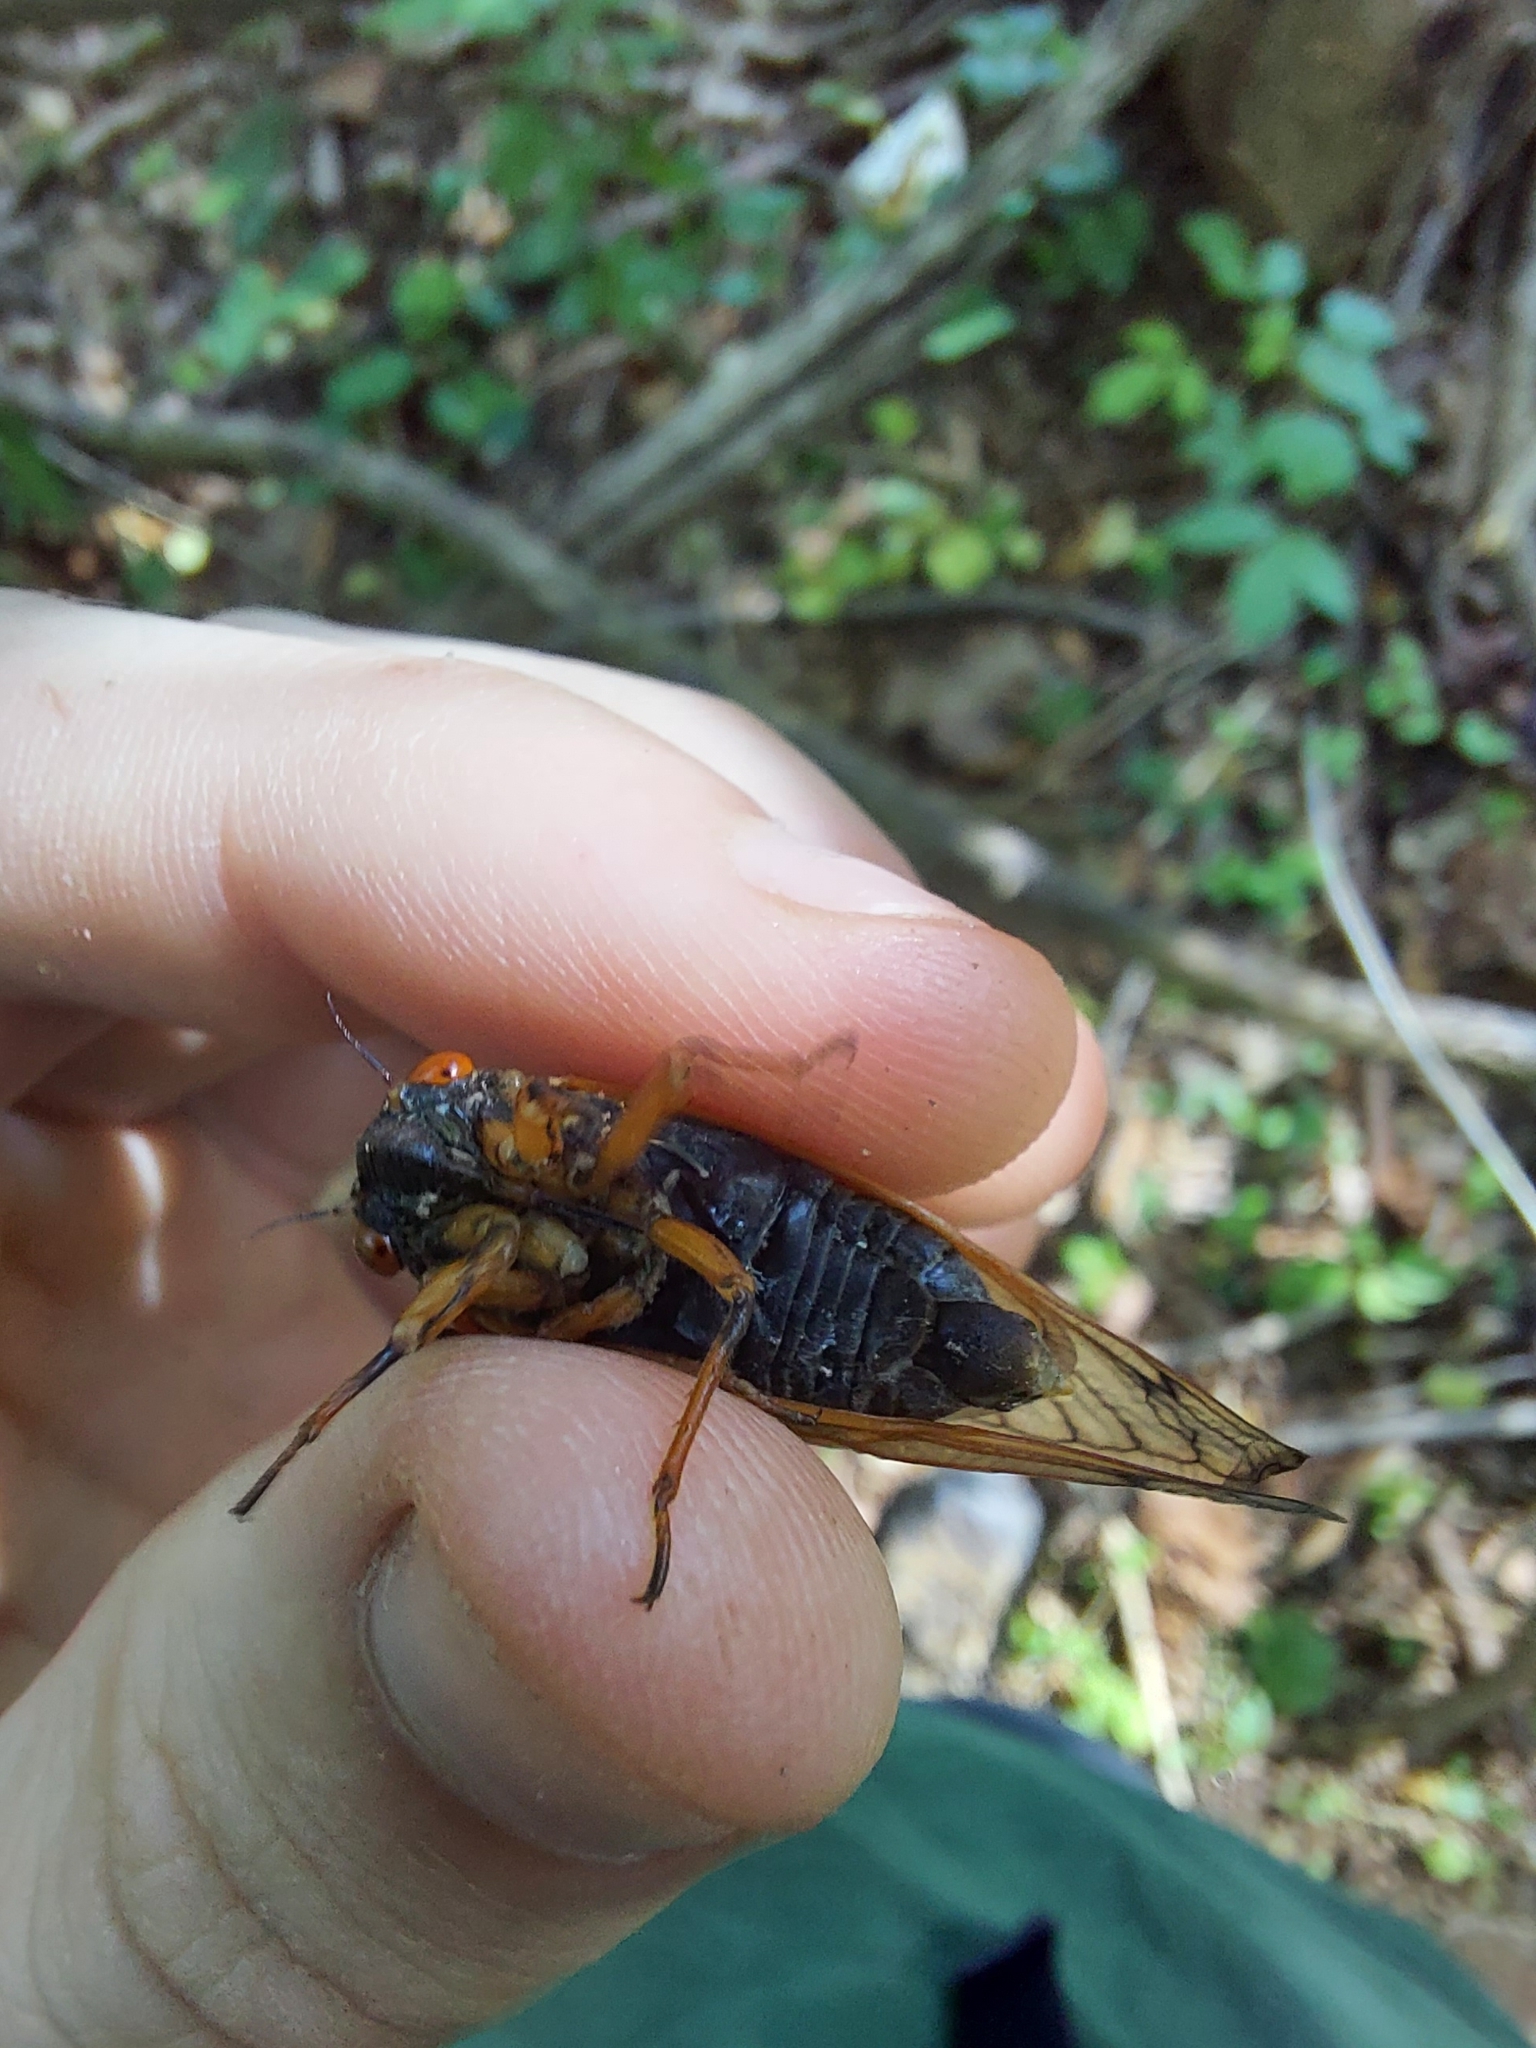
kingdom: Animalia
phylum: Arthropoda
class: Insecta
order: Hemiptera
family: Cicadidae
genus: Magicicada
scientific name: Magicicada cassini
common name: Cassin's 17-year cicada
